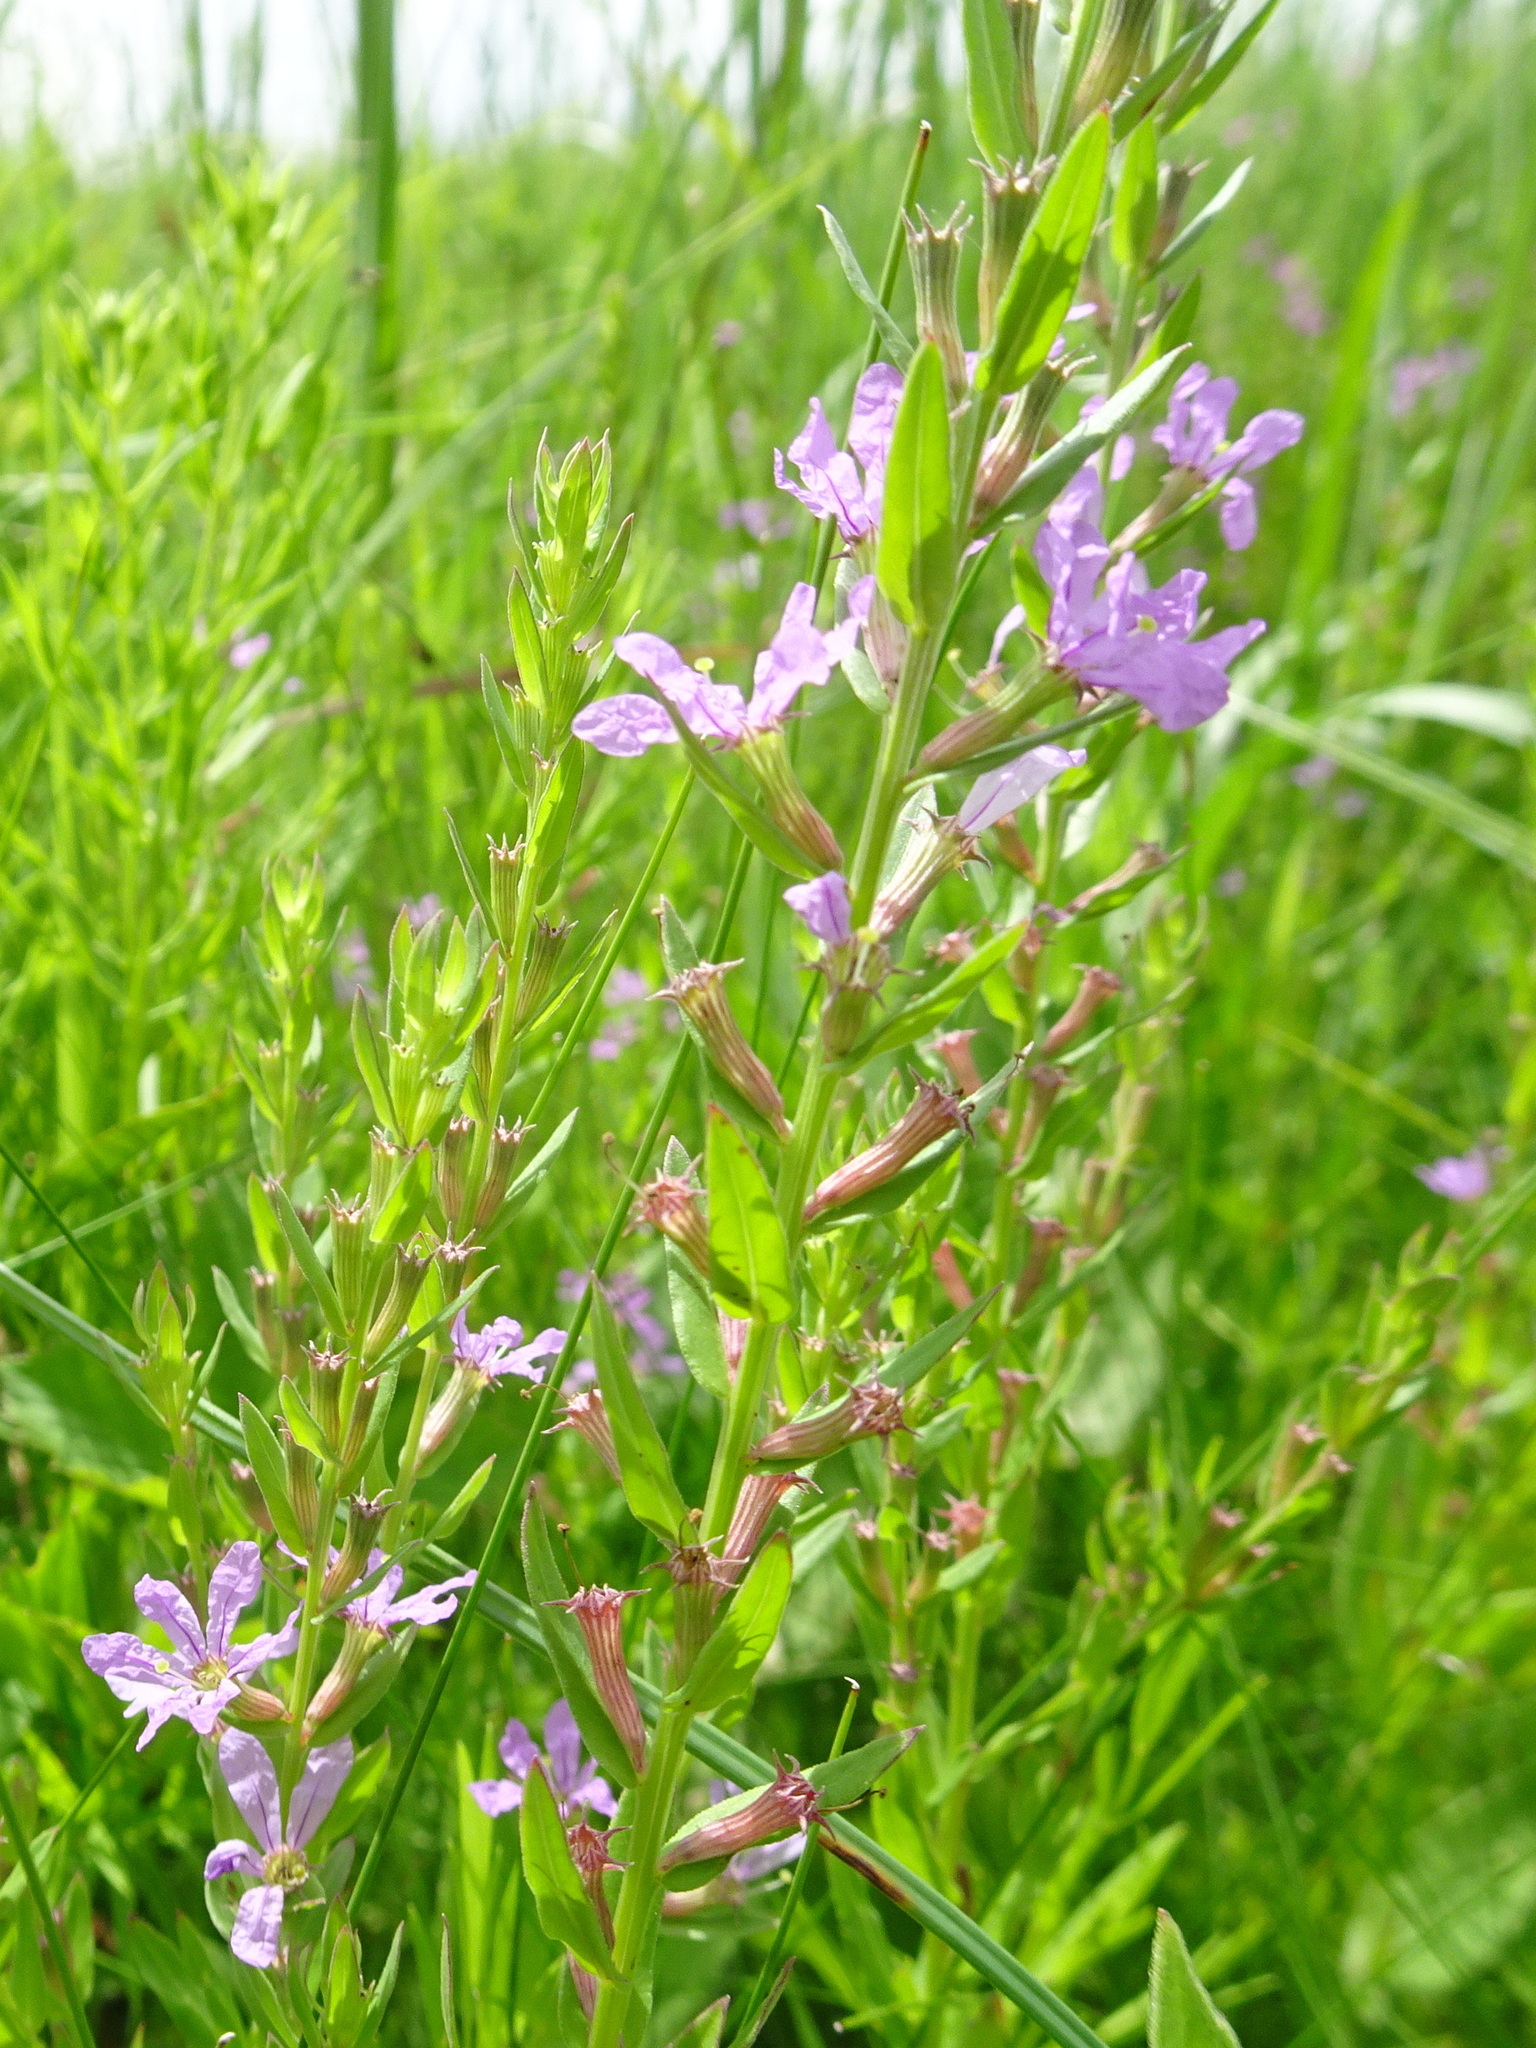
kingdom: Plantae
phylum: Tracheophyta
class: Magnoliopsida
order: Myrtales
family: Lythraceae
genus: Lythrum
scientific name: Lythrum alatum
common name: Winged loosestrife
